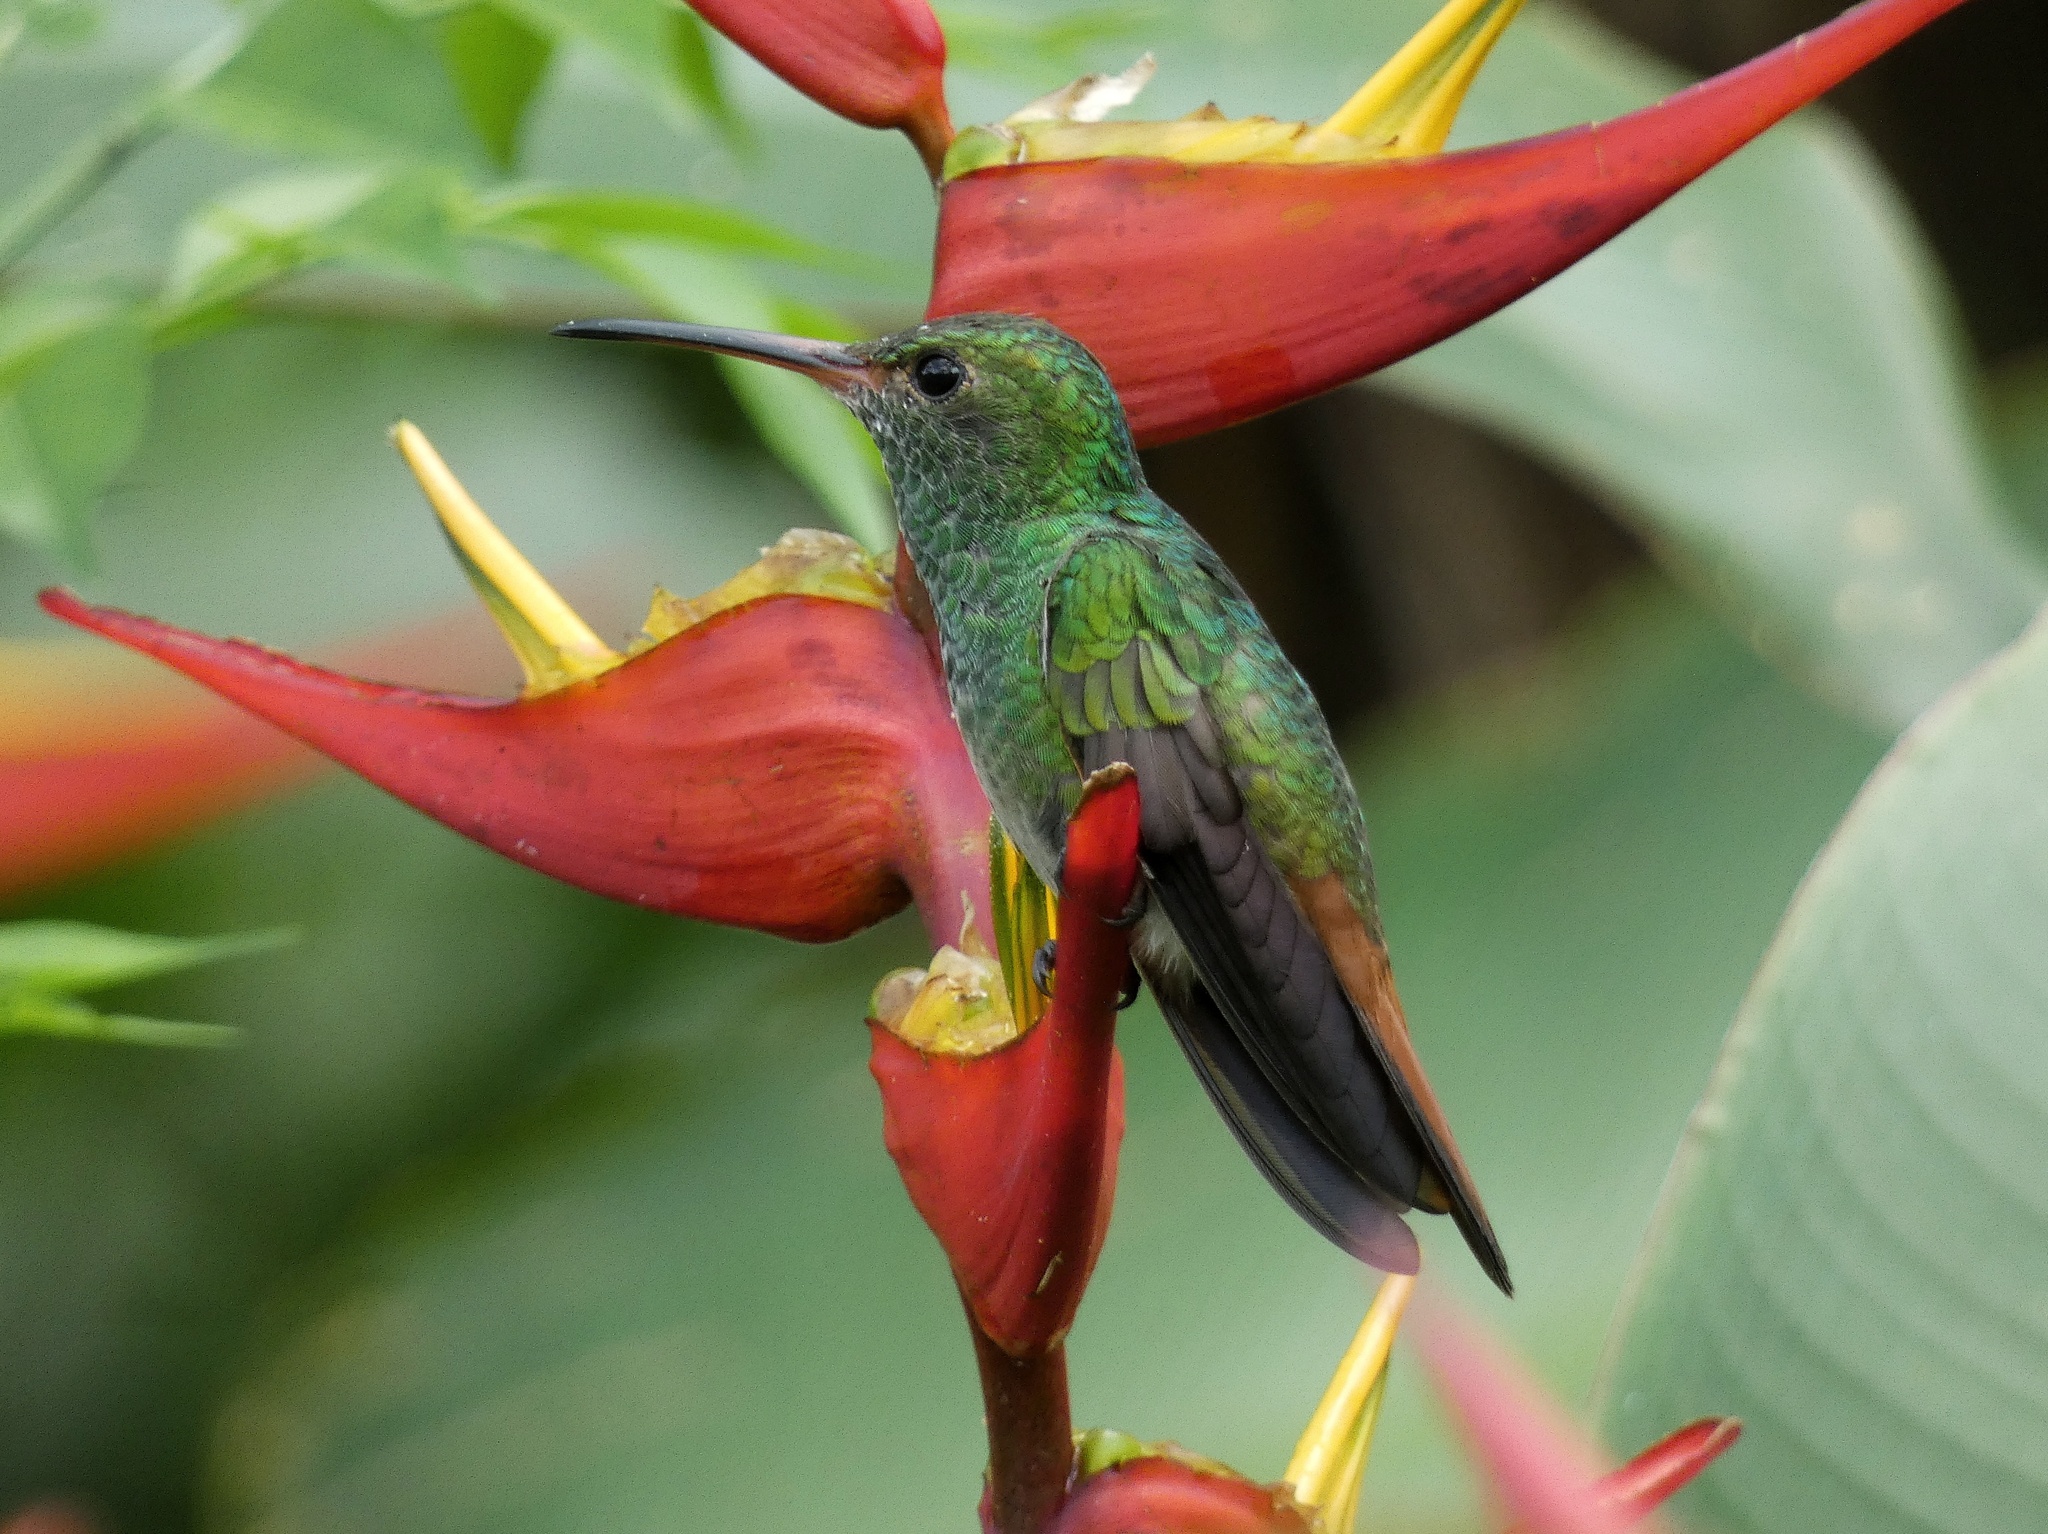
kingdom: Animalia
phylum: Chordata
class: Aves
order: Apodiformes
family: Trochilidae
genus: Amazilia
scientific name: Amazilia tzacatl
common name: Rufous-tailed hummingbird
